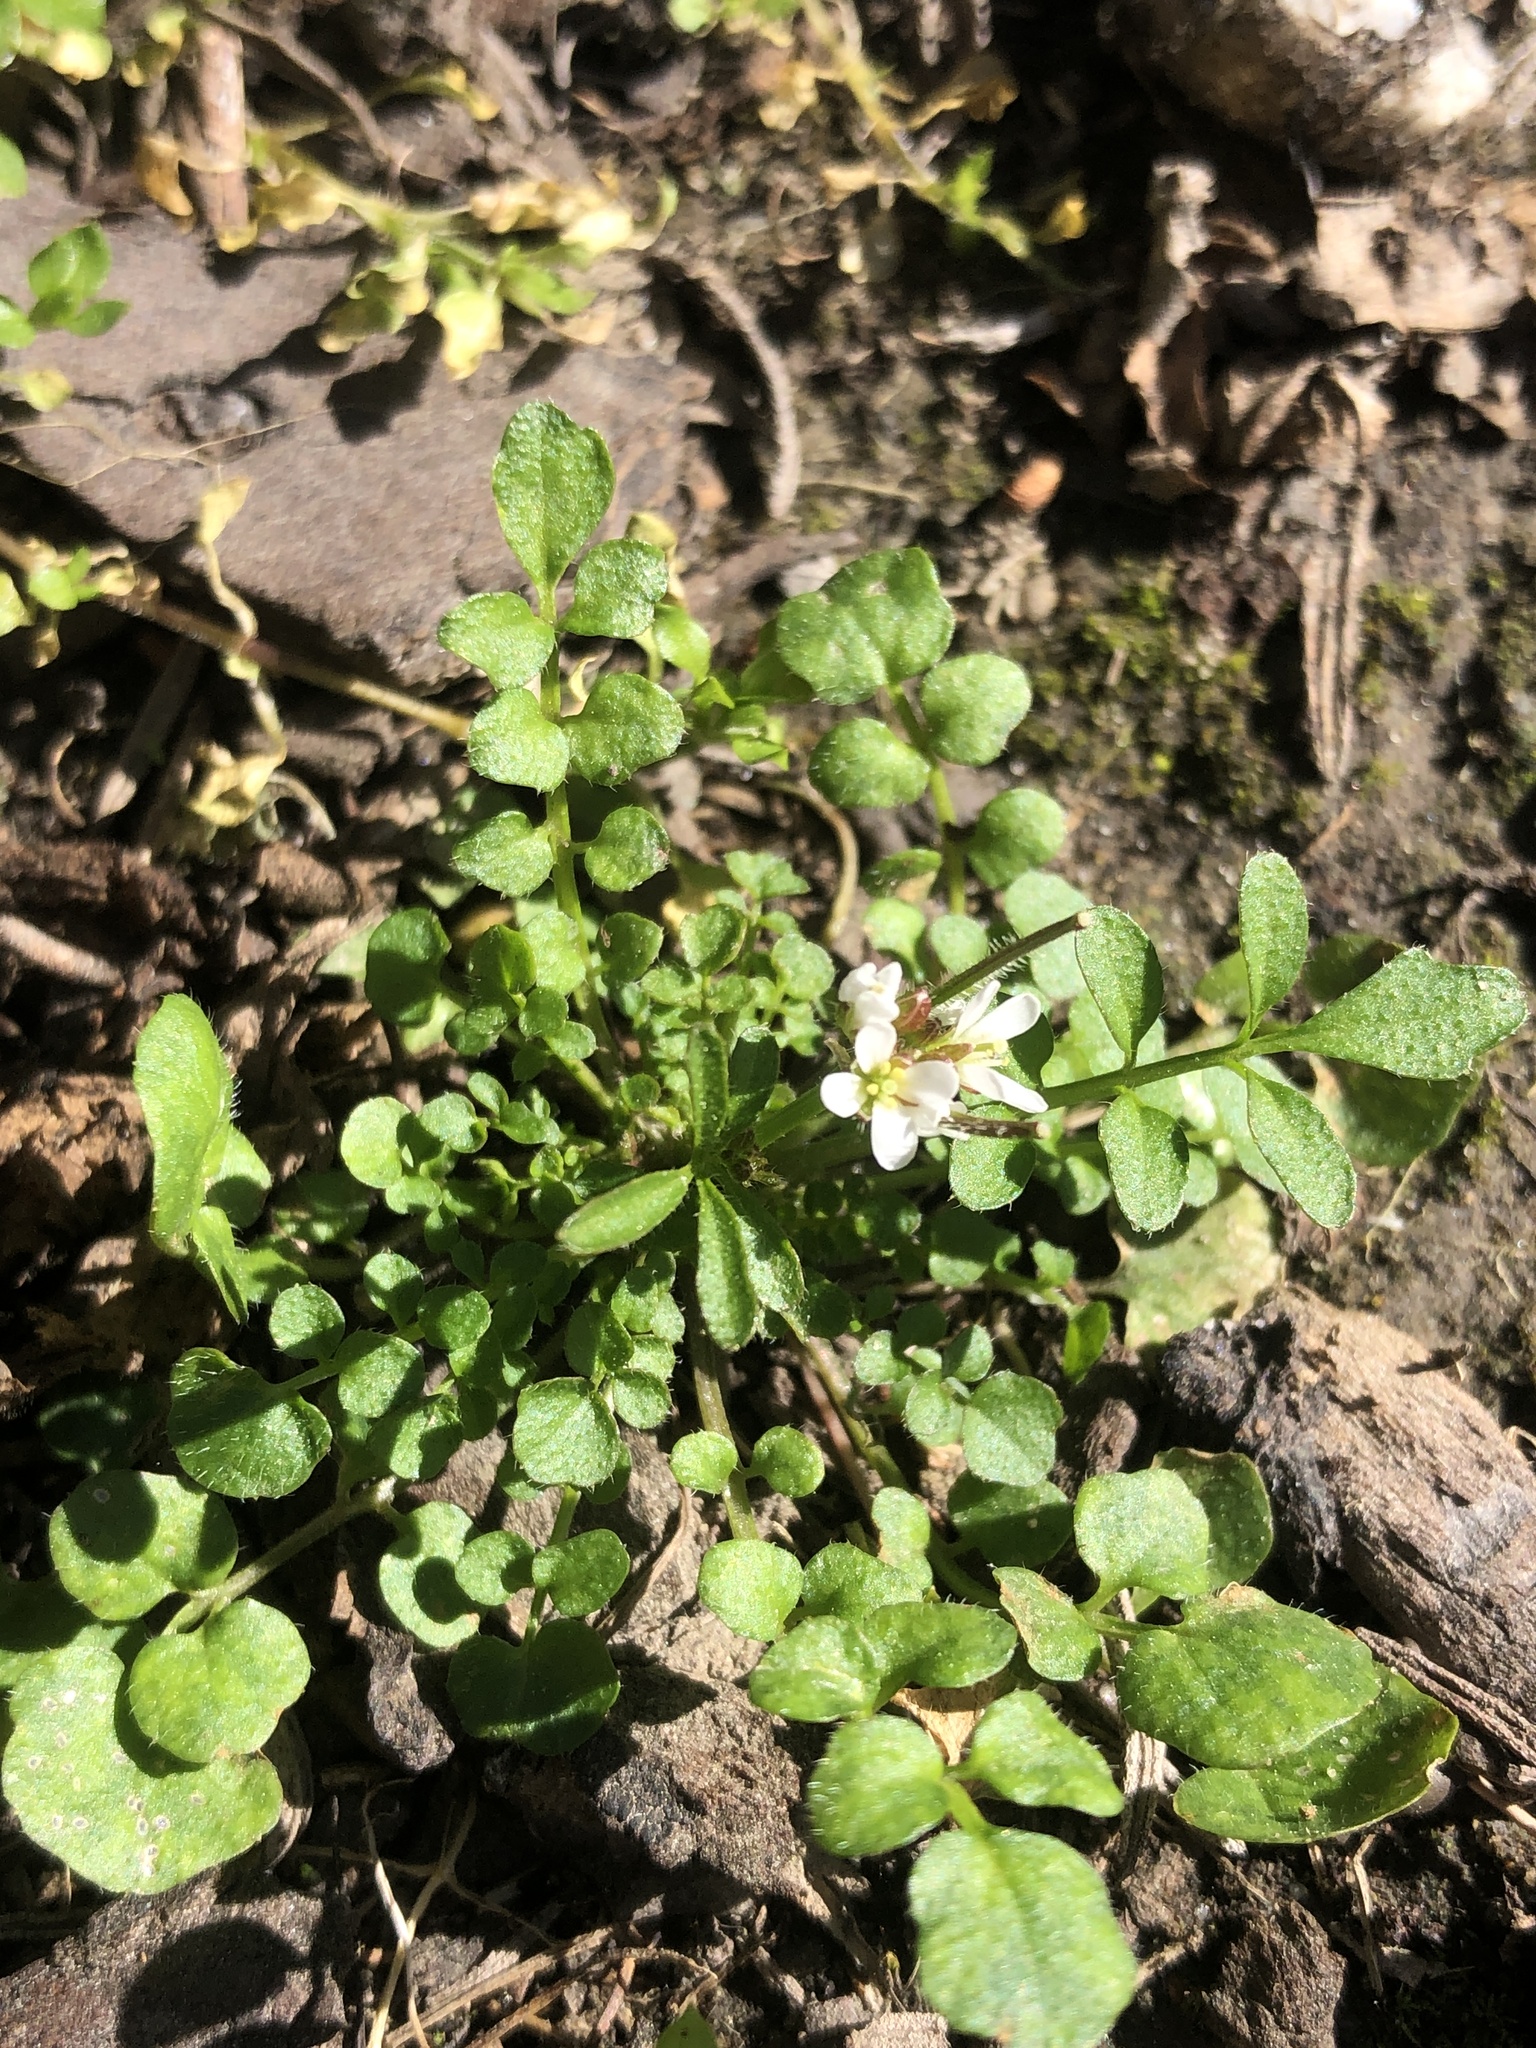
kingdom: Plantae
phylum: Tracheophyta
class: Magnoliopsida
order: Brassicales
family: Brassicaceae
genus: Cardamine
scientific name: Cardamine hirsuta
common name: Hairy bittercress
